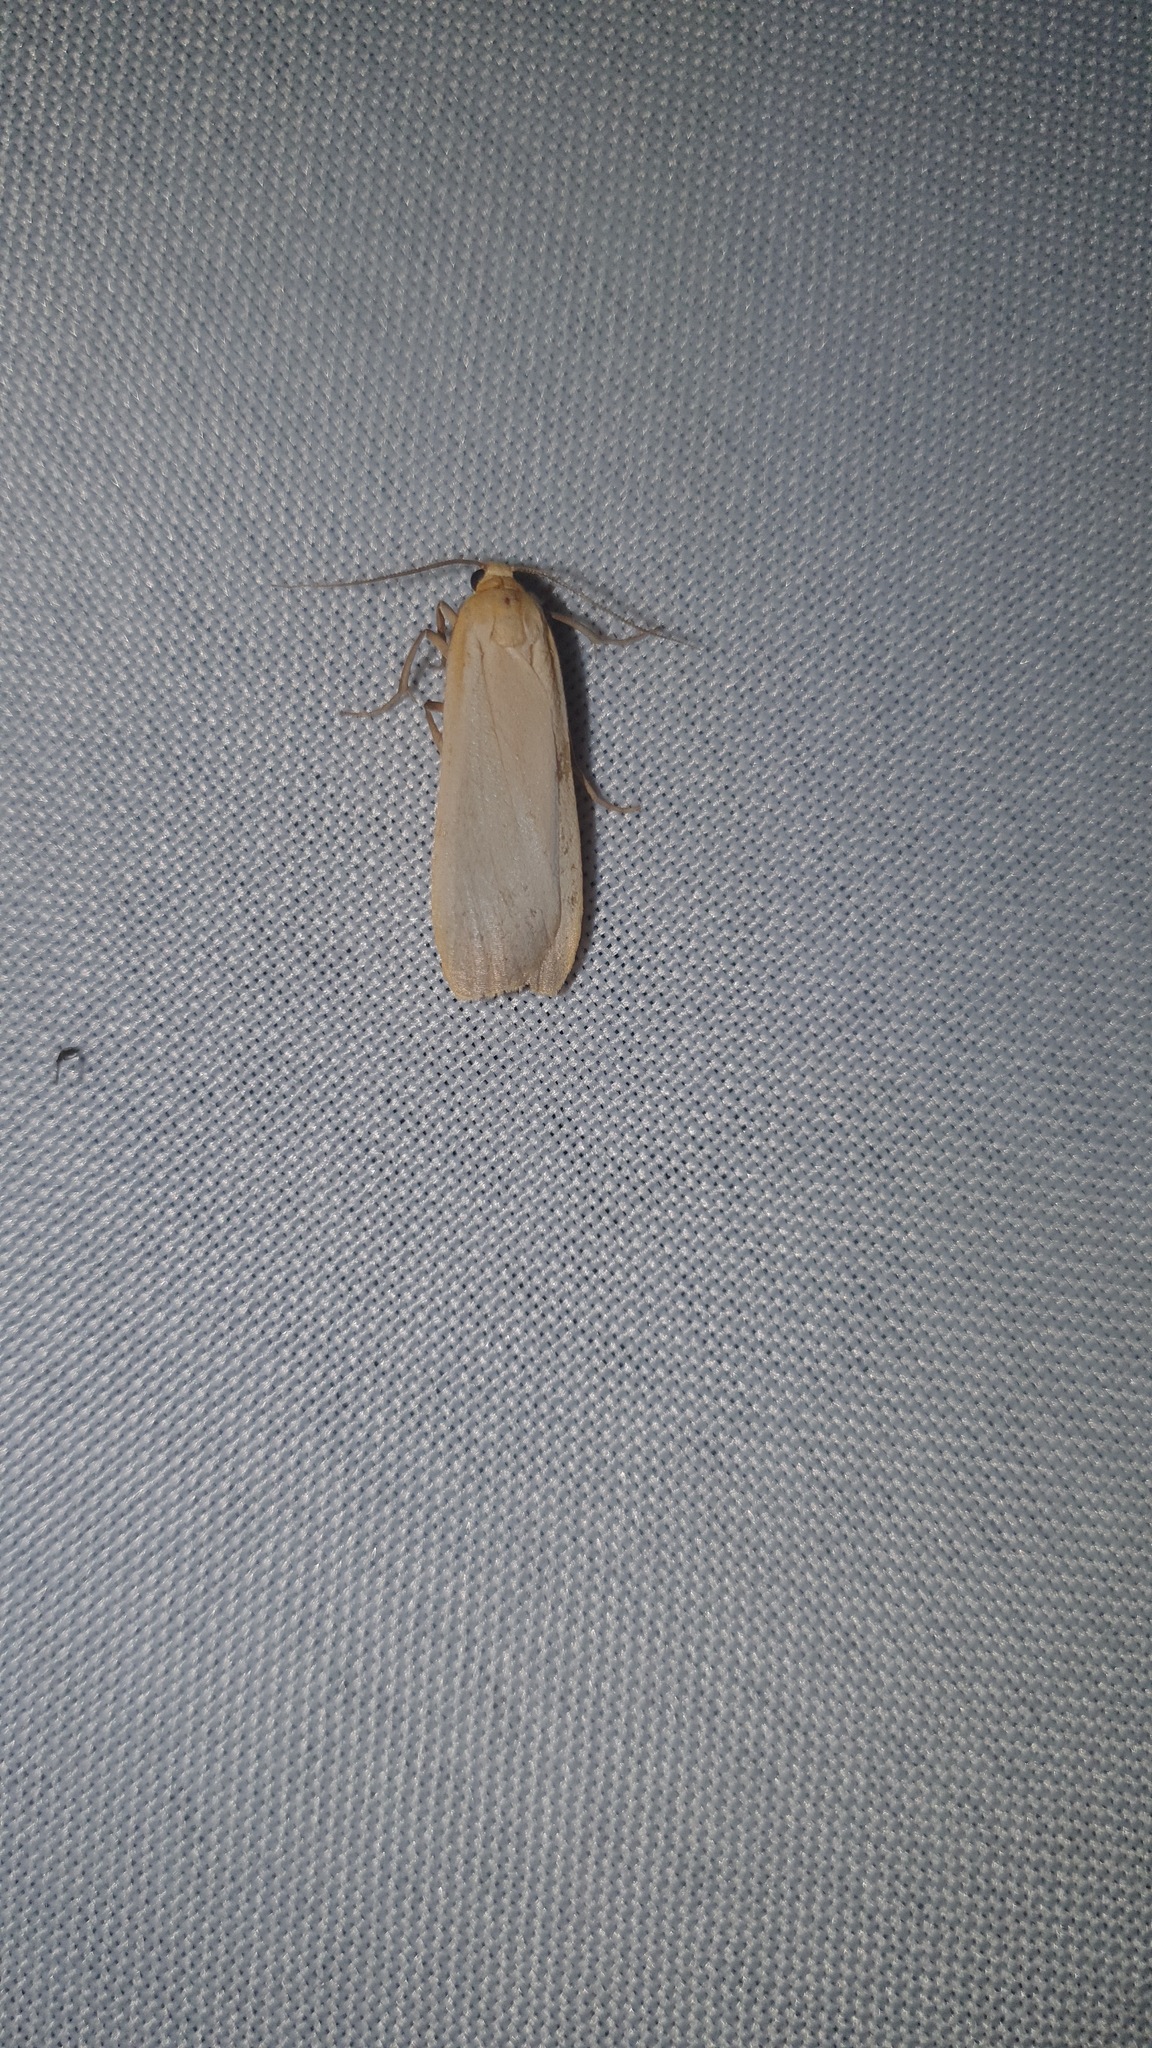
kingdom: Animalia
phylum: Arthropoda
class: Insecta
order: Lepidoptera
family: Erebidae
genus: Katha
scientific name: Katha depressa
